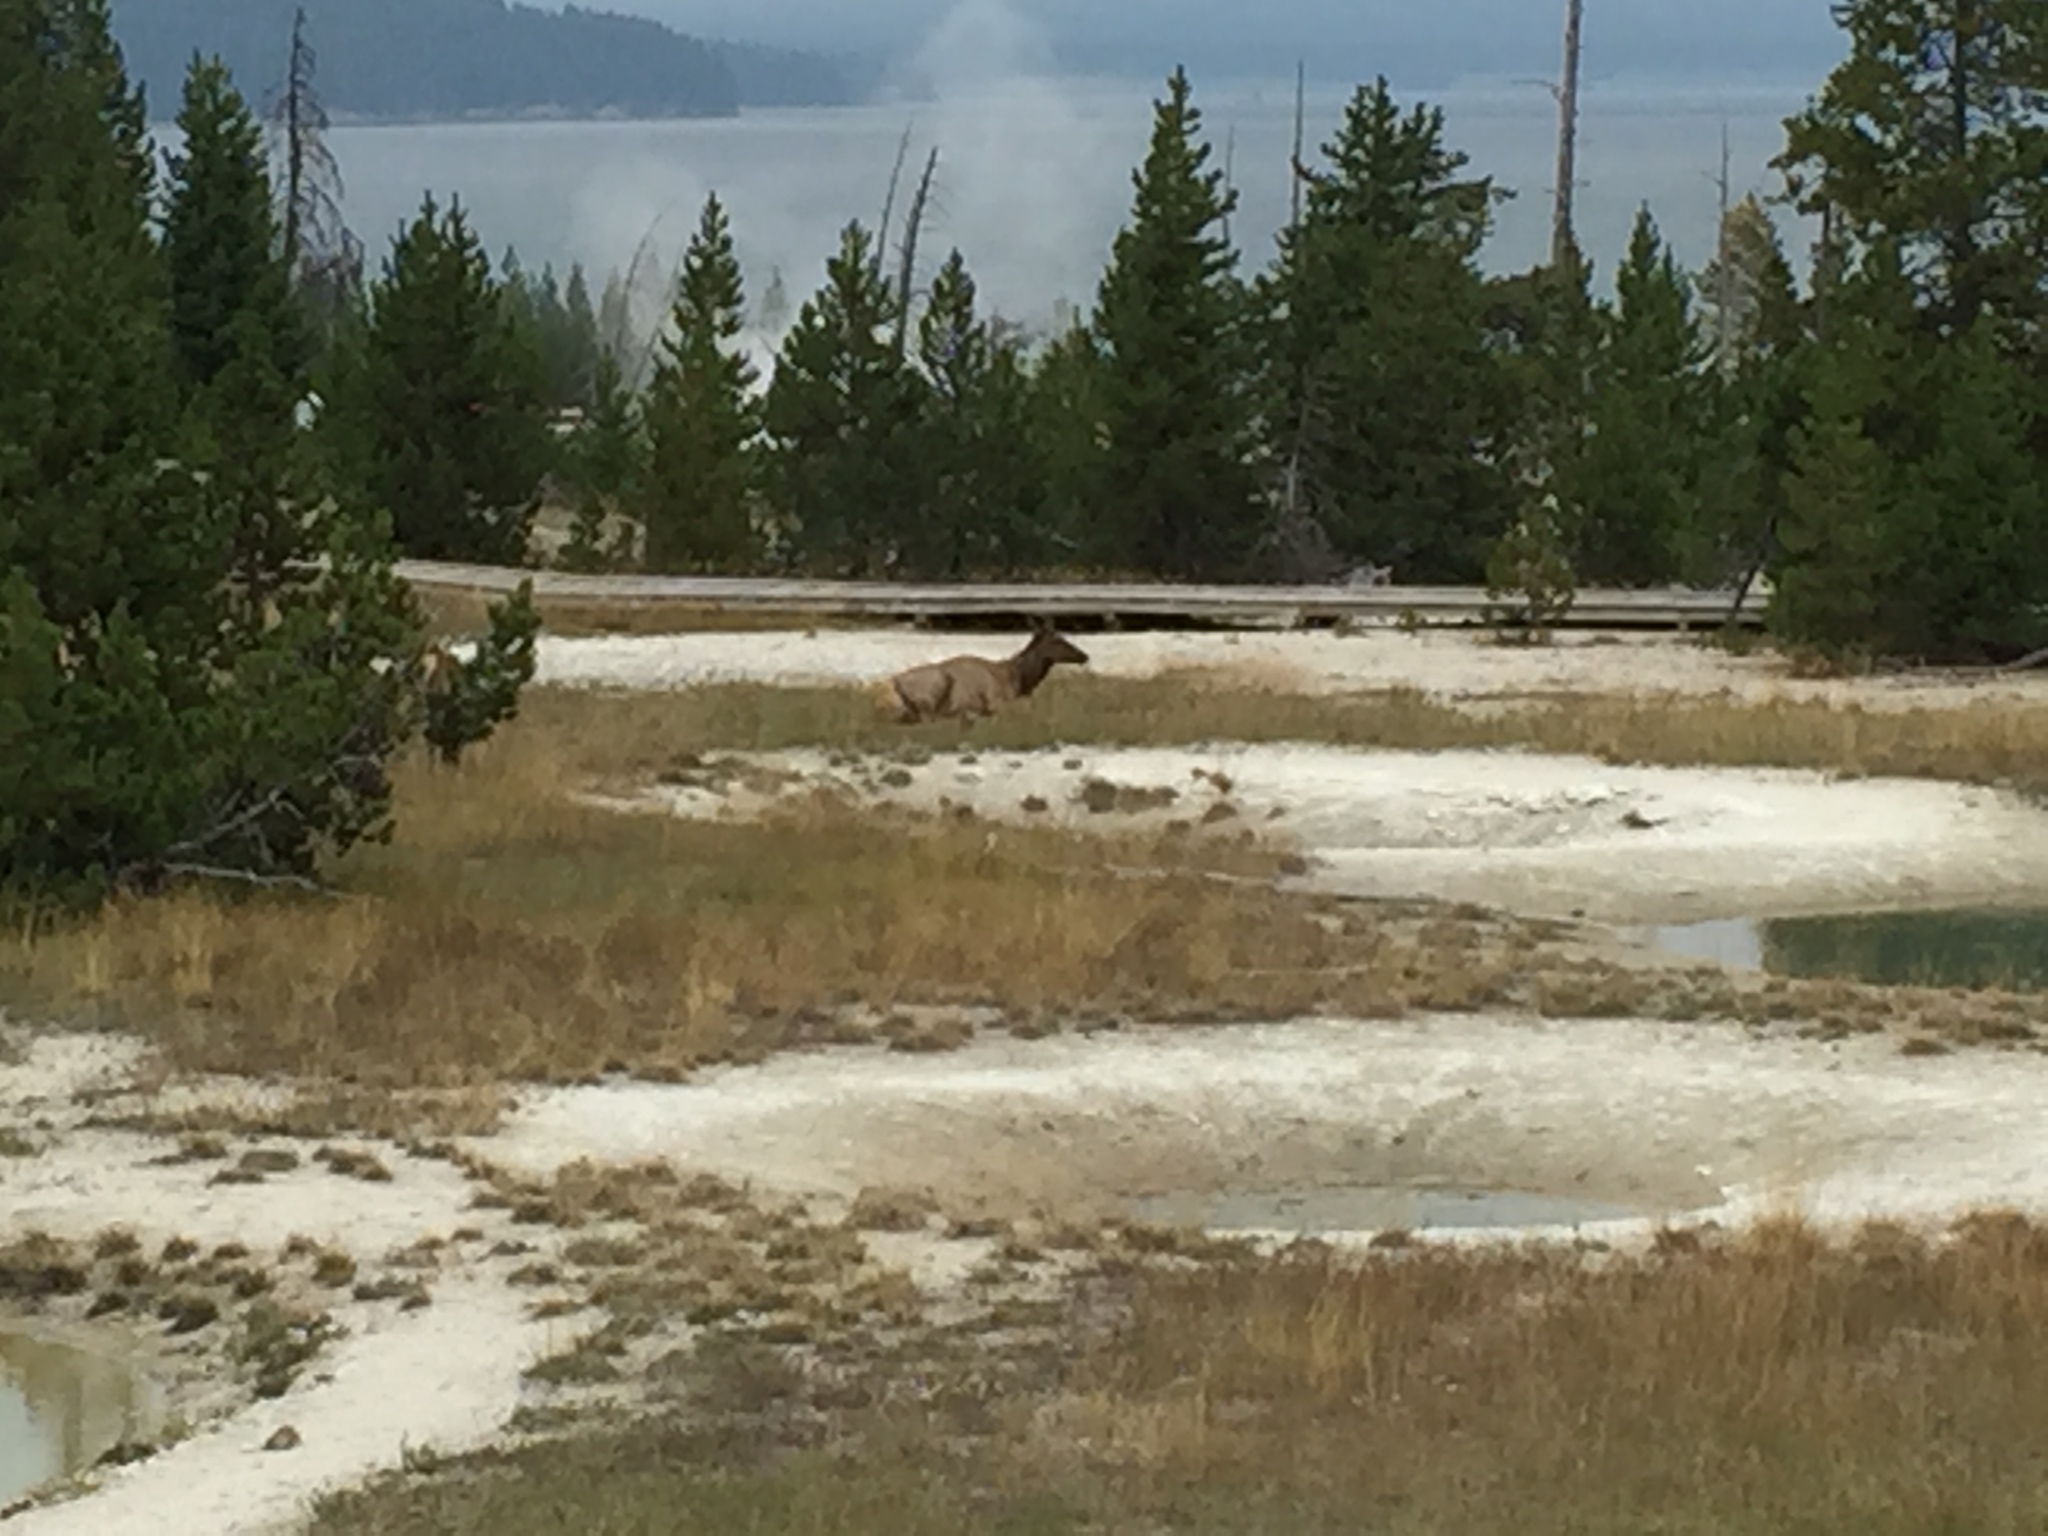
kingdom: Animalia
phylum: Chordata
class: Mammalia
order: Artiodactyla
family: Cervidae
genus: Cervus
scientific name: Cervus elaphus
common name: Red deer
